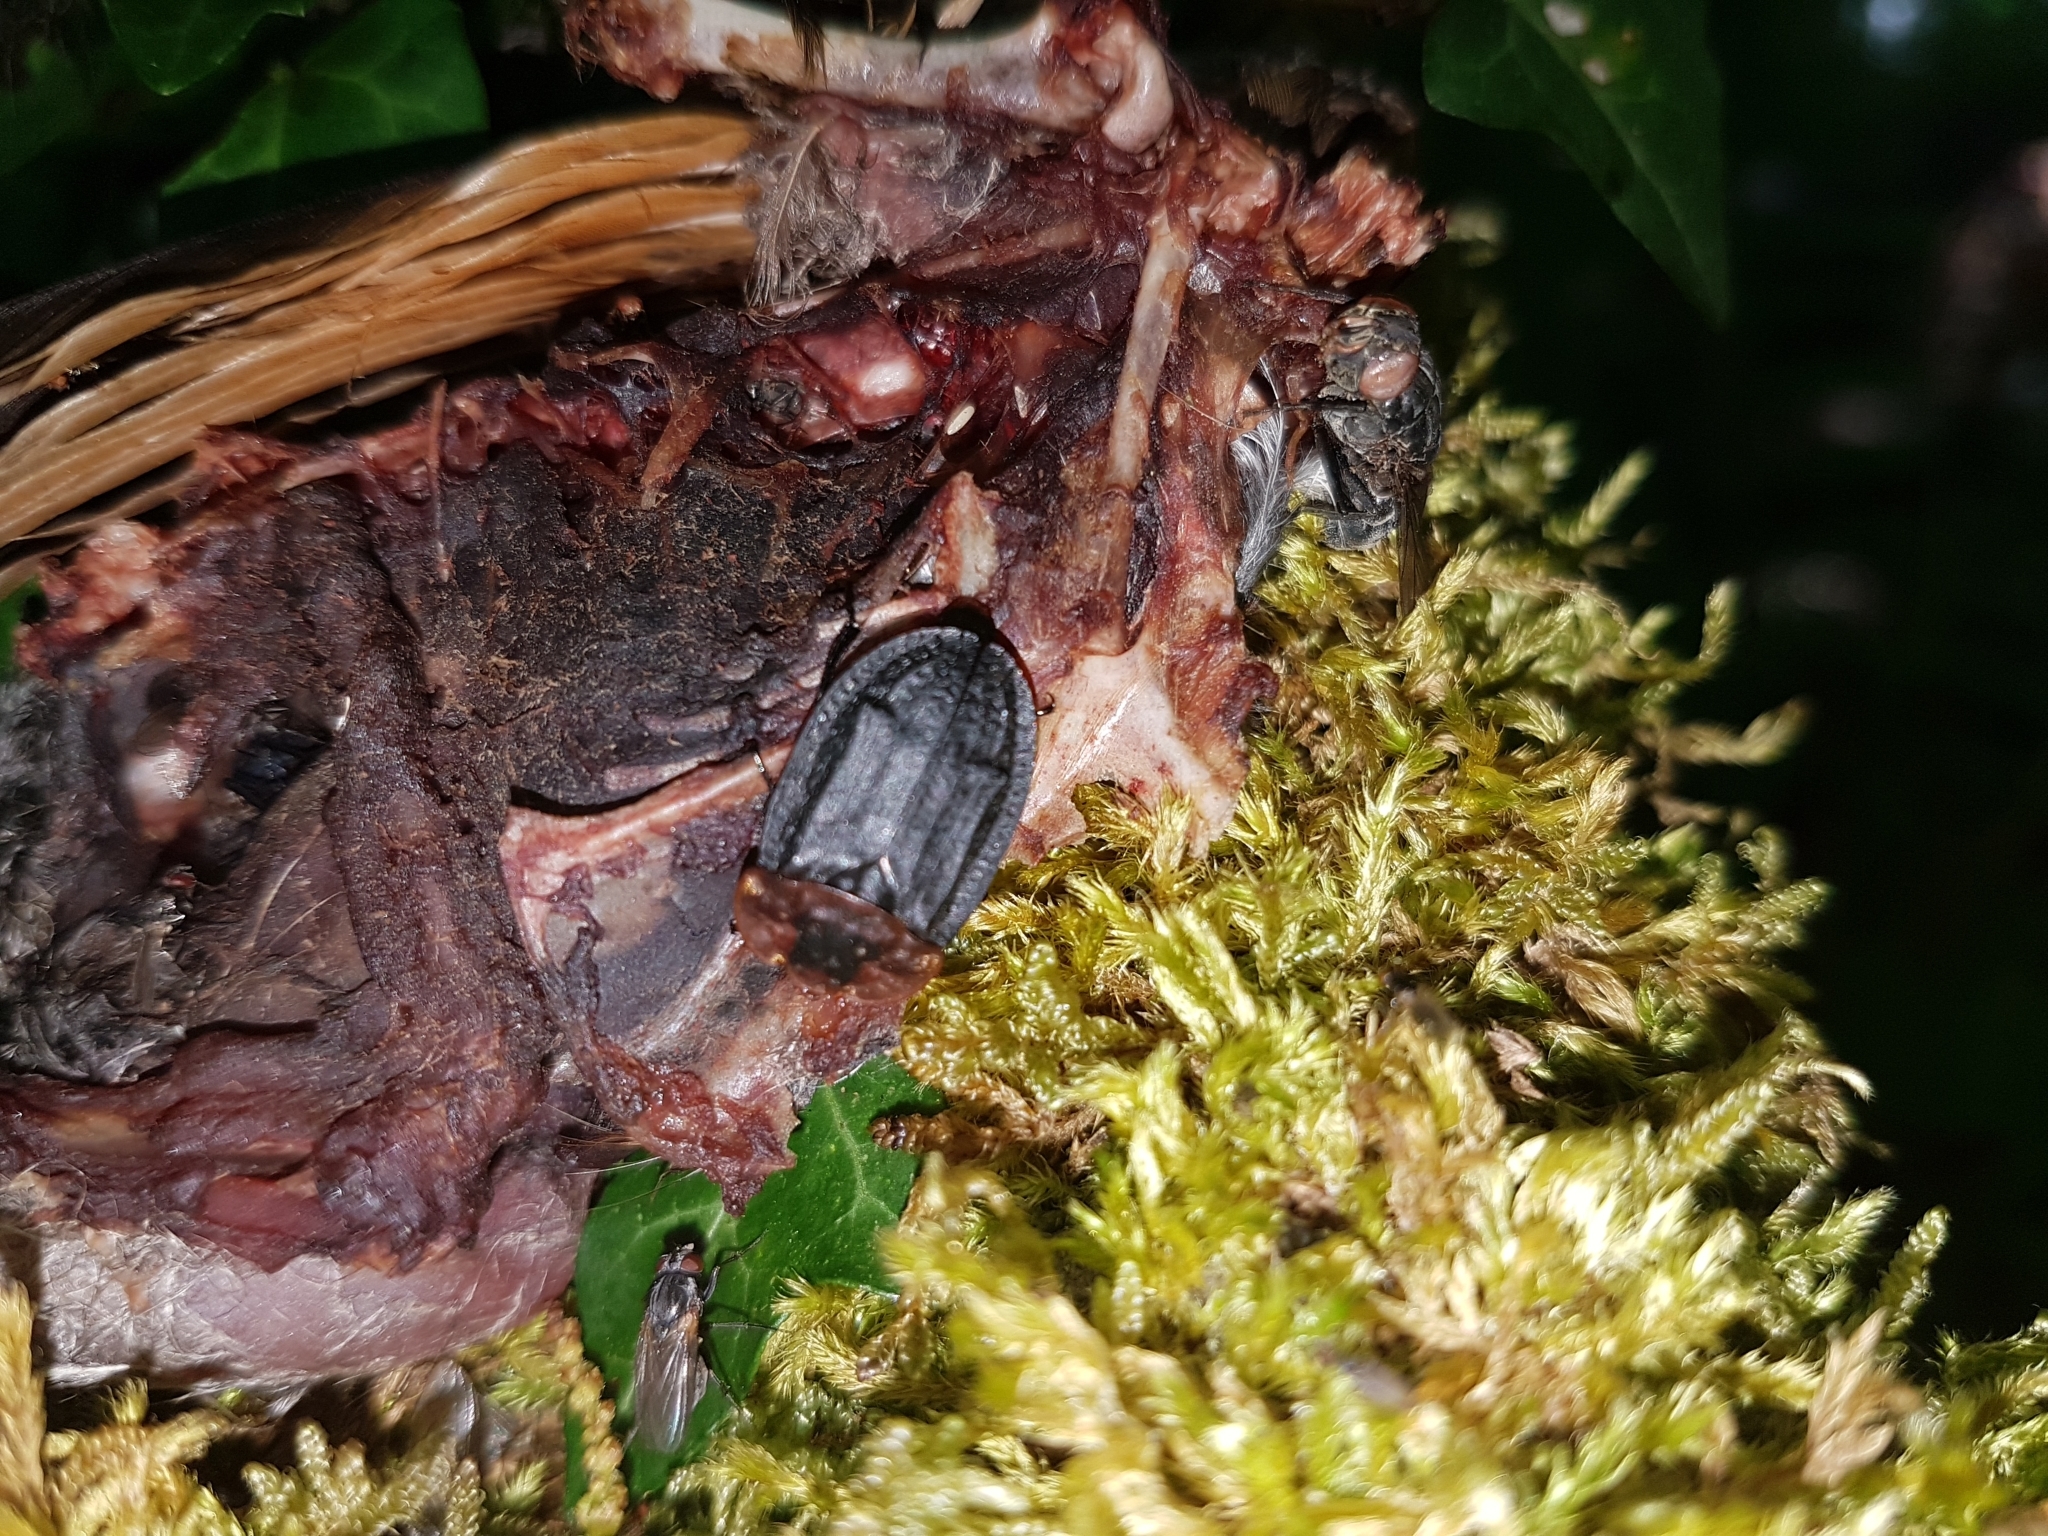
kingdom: Animalia
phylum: Arthropoda
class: Insecta
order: Coleoptera
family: Staphylinidae
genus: Oiceoptoma
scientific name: Oiceoptoma thoracicum
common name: Red-breasted carrion beetle
